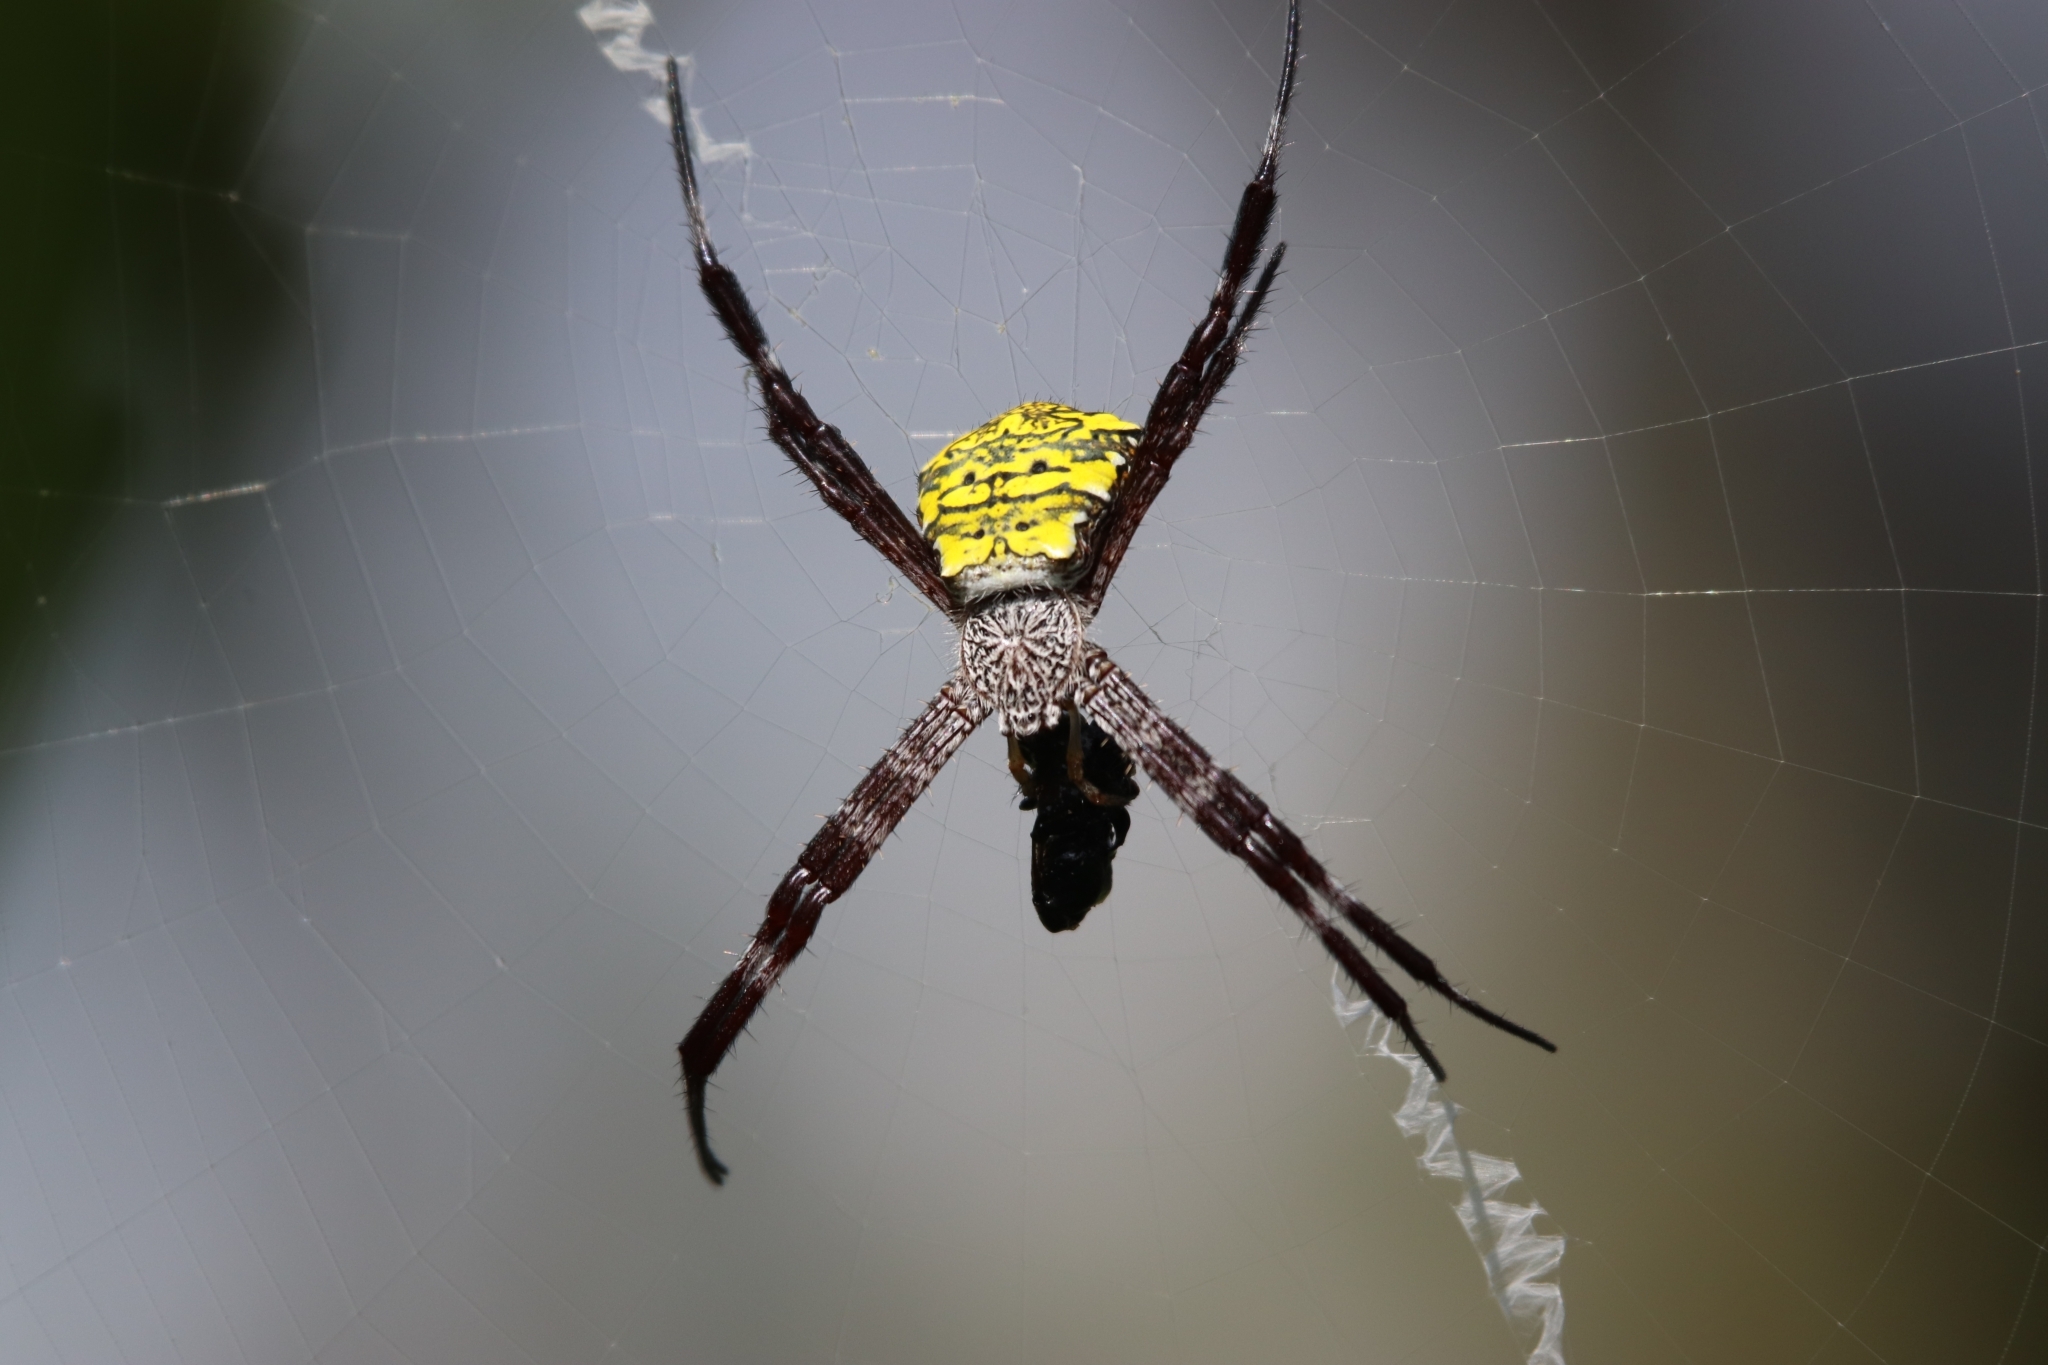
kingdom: Animalia
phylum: Arthropoda
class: Arachnida
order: Araneae
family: Araneidae
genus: Argiope
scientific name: Argiope appensa
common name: Garden spider
